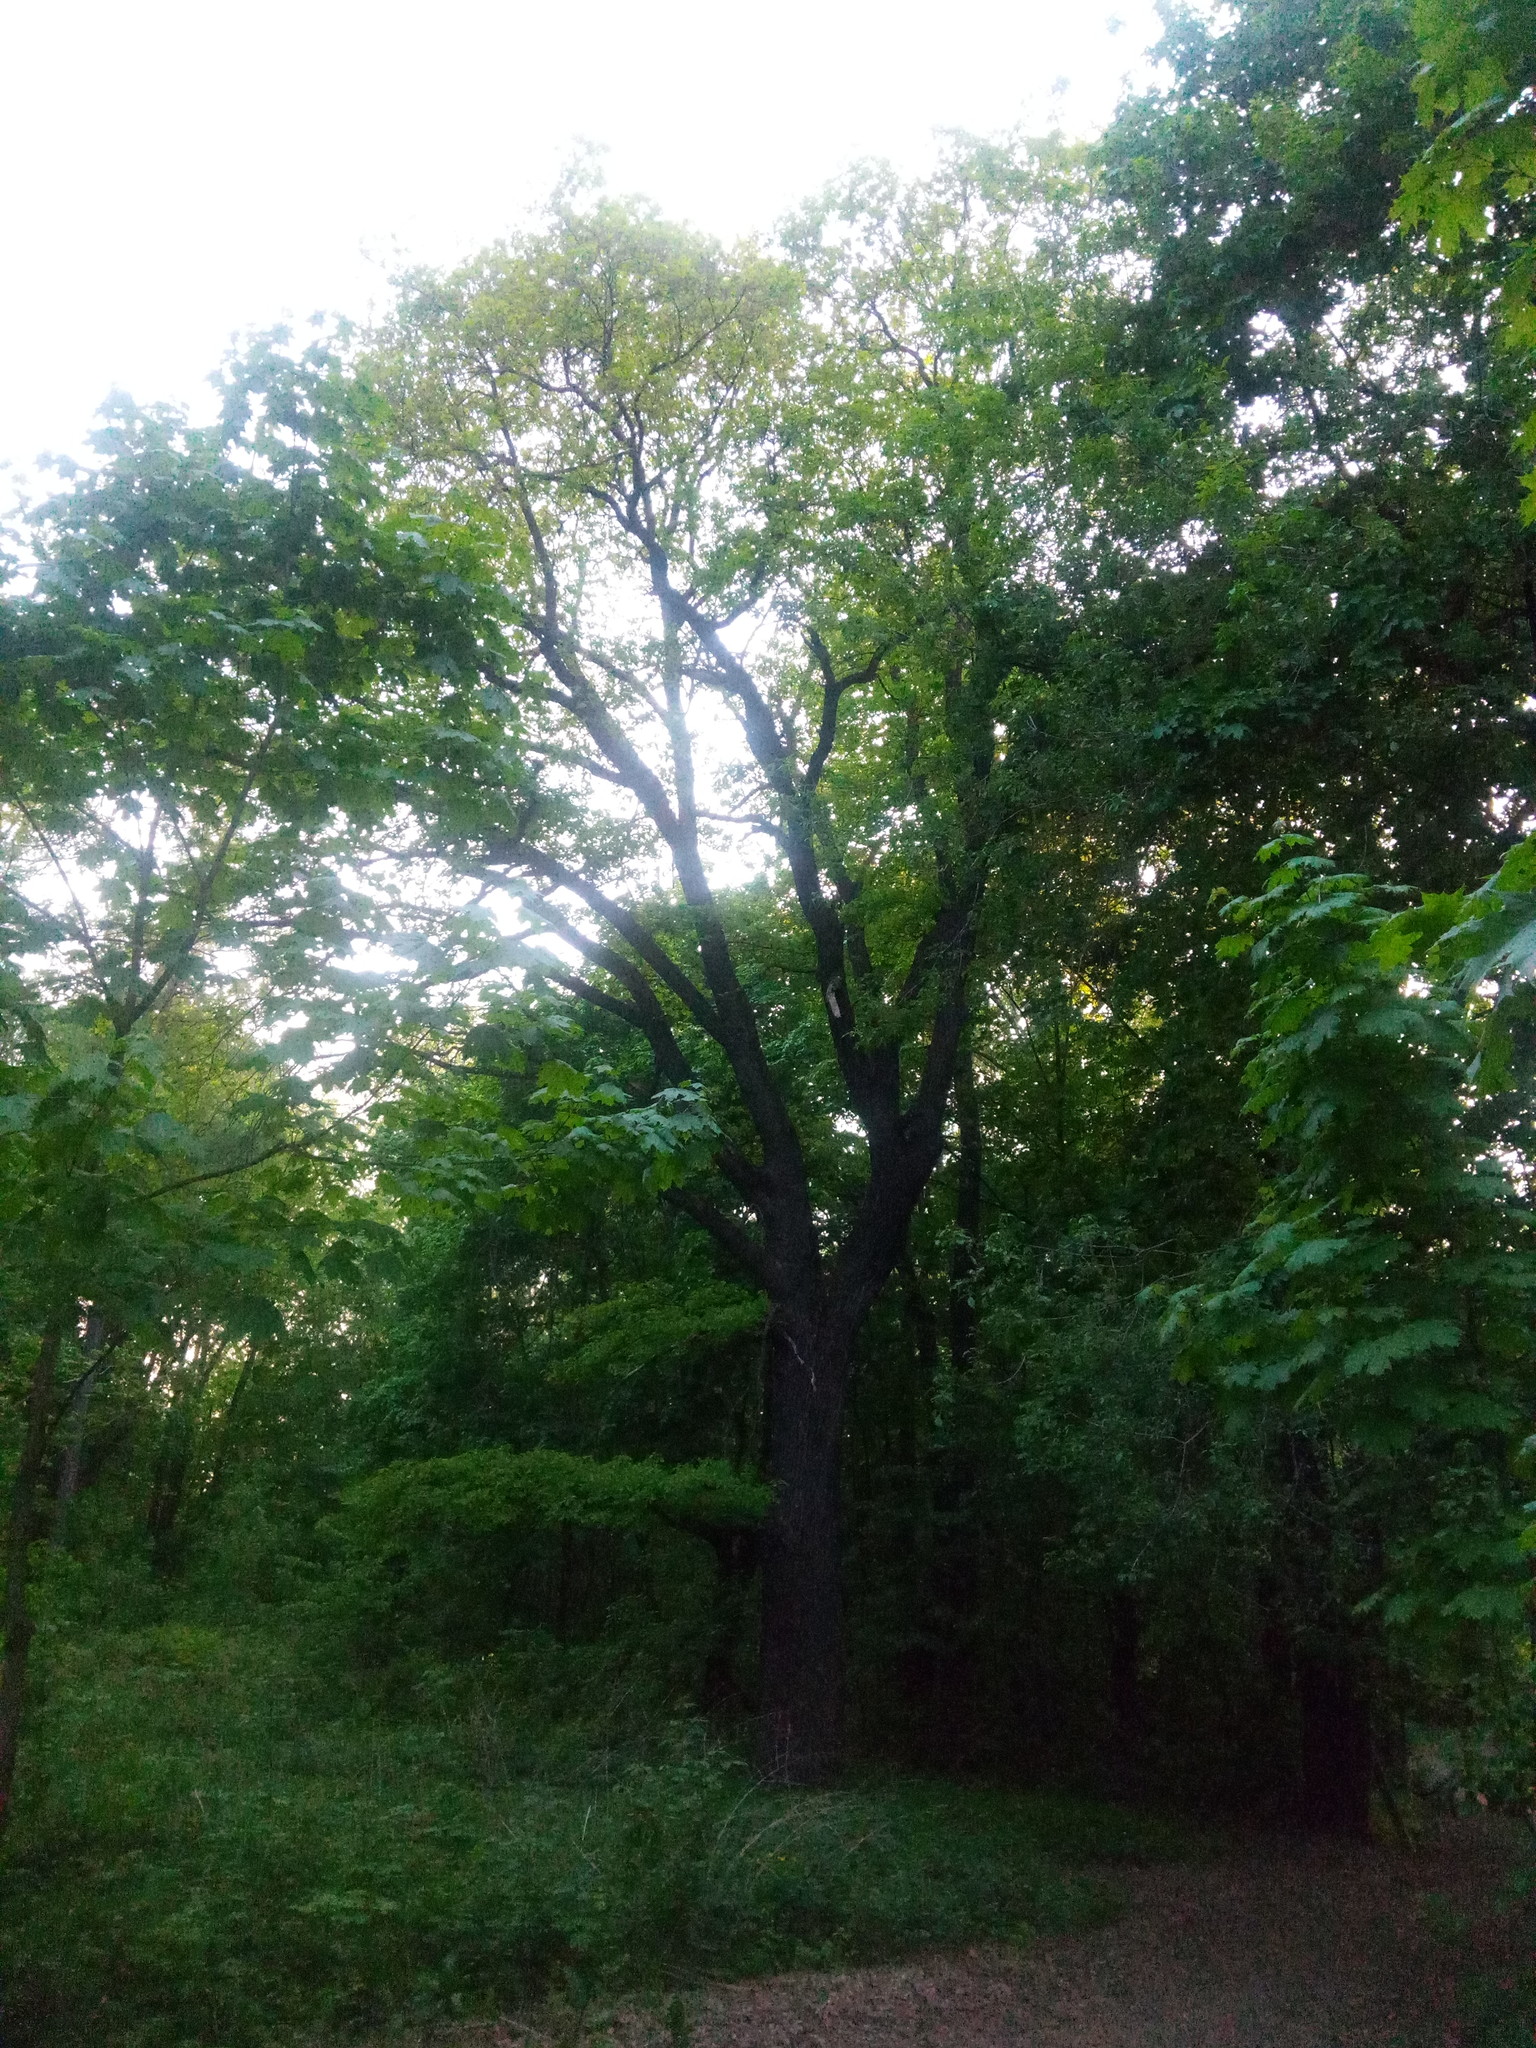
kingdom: Plantae
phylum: Tracheophyta
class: Magnoliopsida
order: Fagales
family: Fagaceae
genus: Quercus
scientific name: Quercus robur
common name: Pedunculate oak
